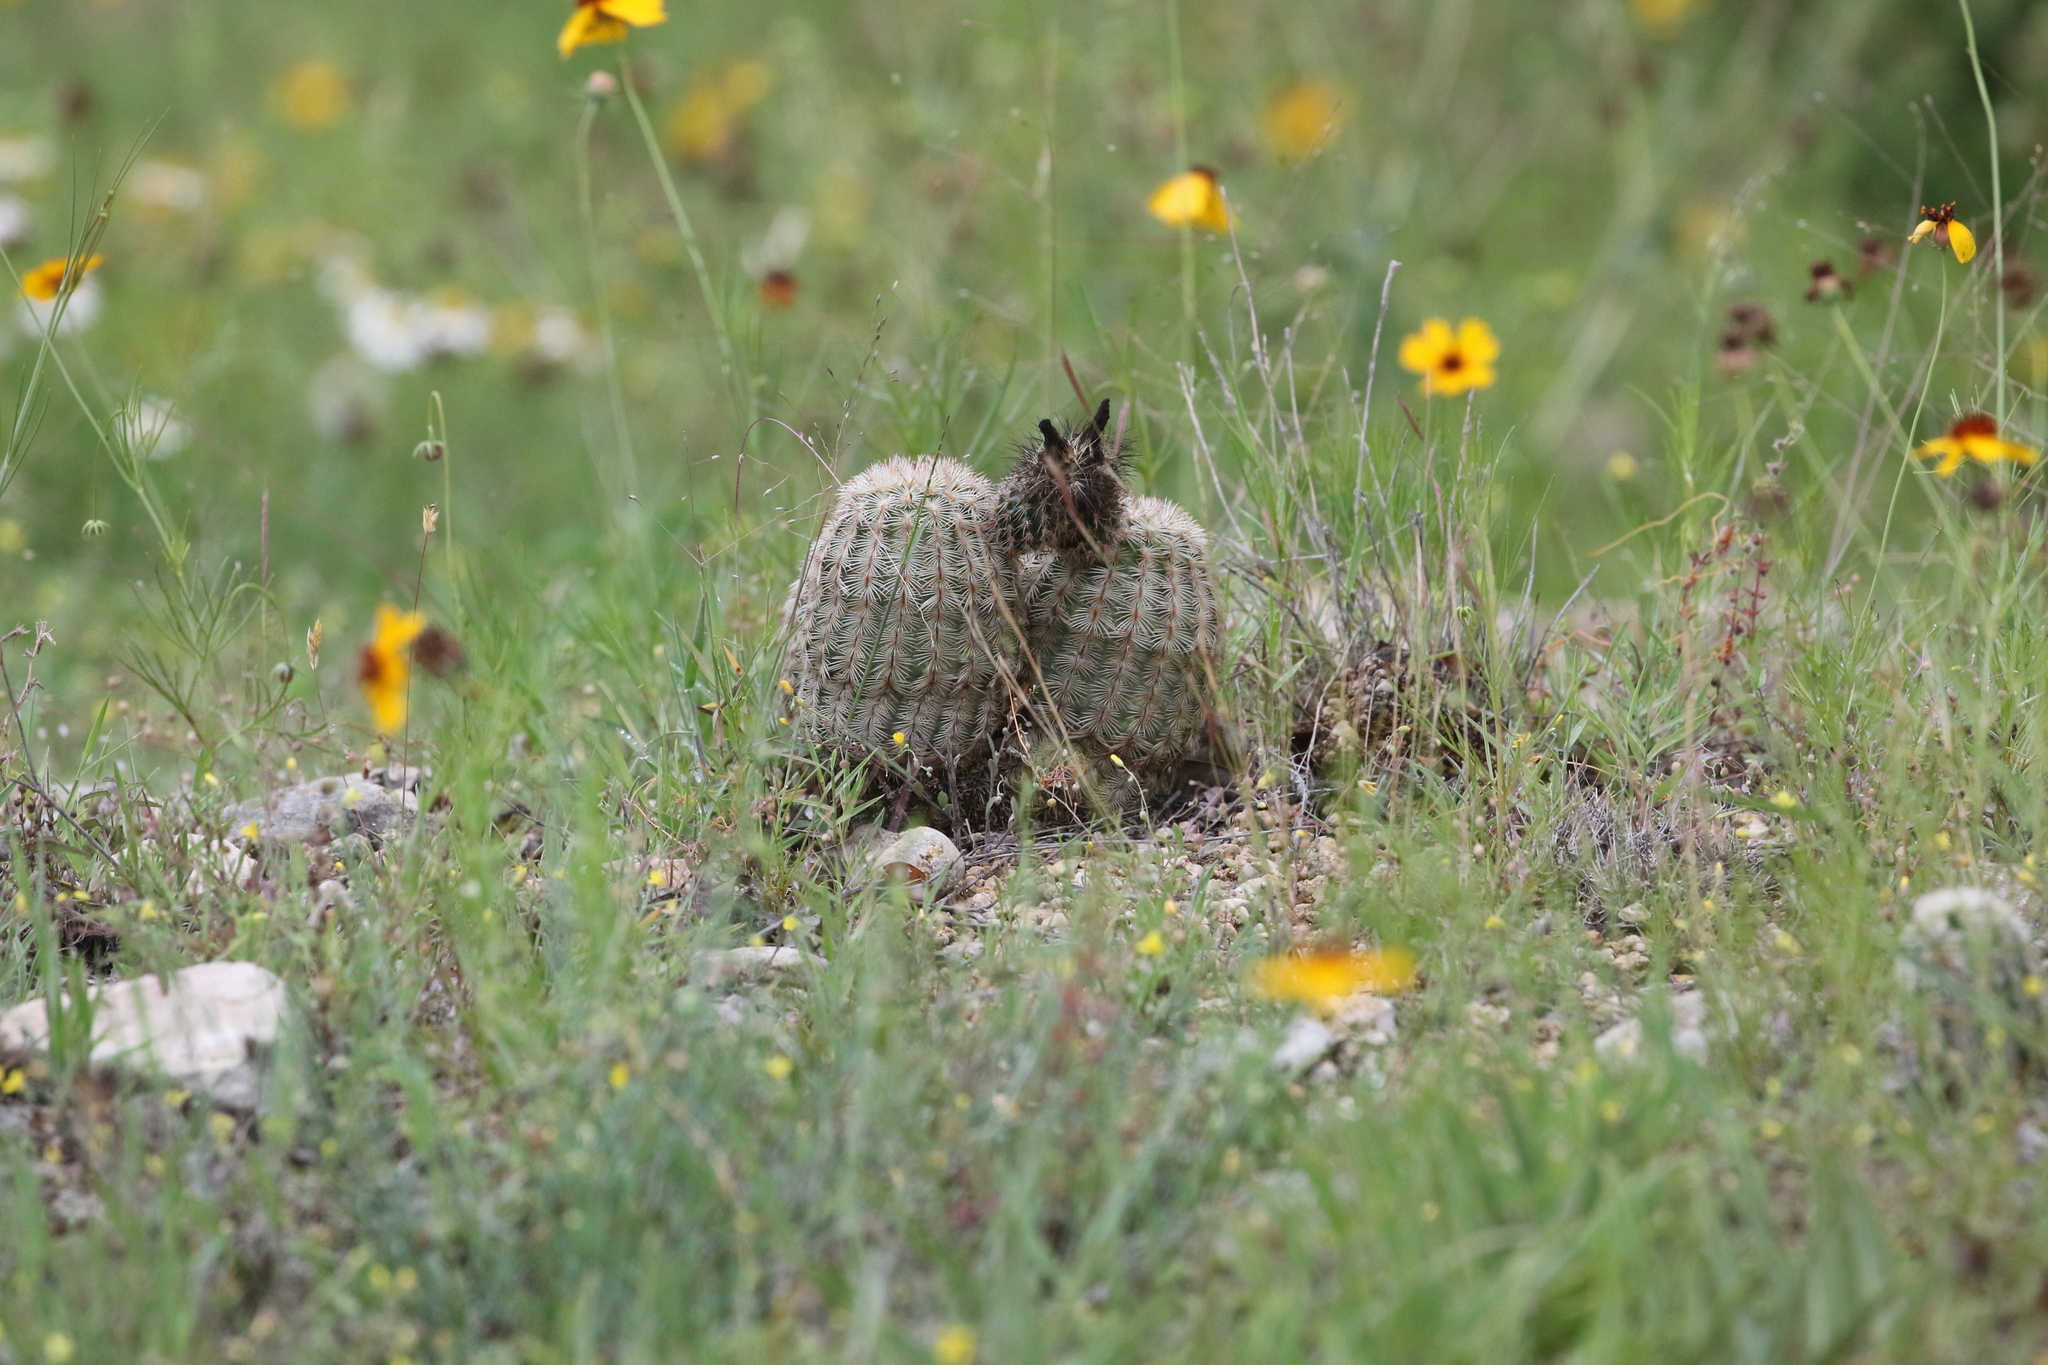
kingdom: Plantae
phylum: Tracheophyta
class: Magnoliopsida
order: Caryophyllales
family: Cactaceae
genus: Echinocereus
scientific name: Echinocereus reichenbachii
